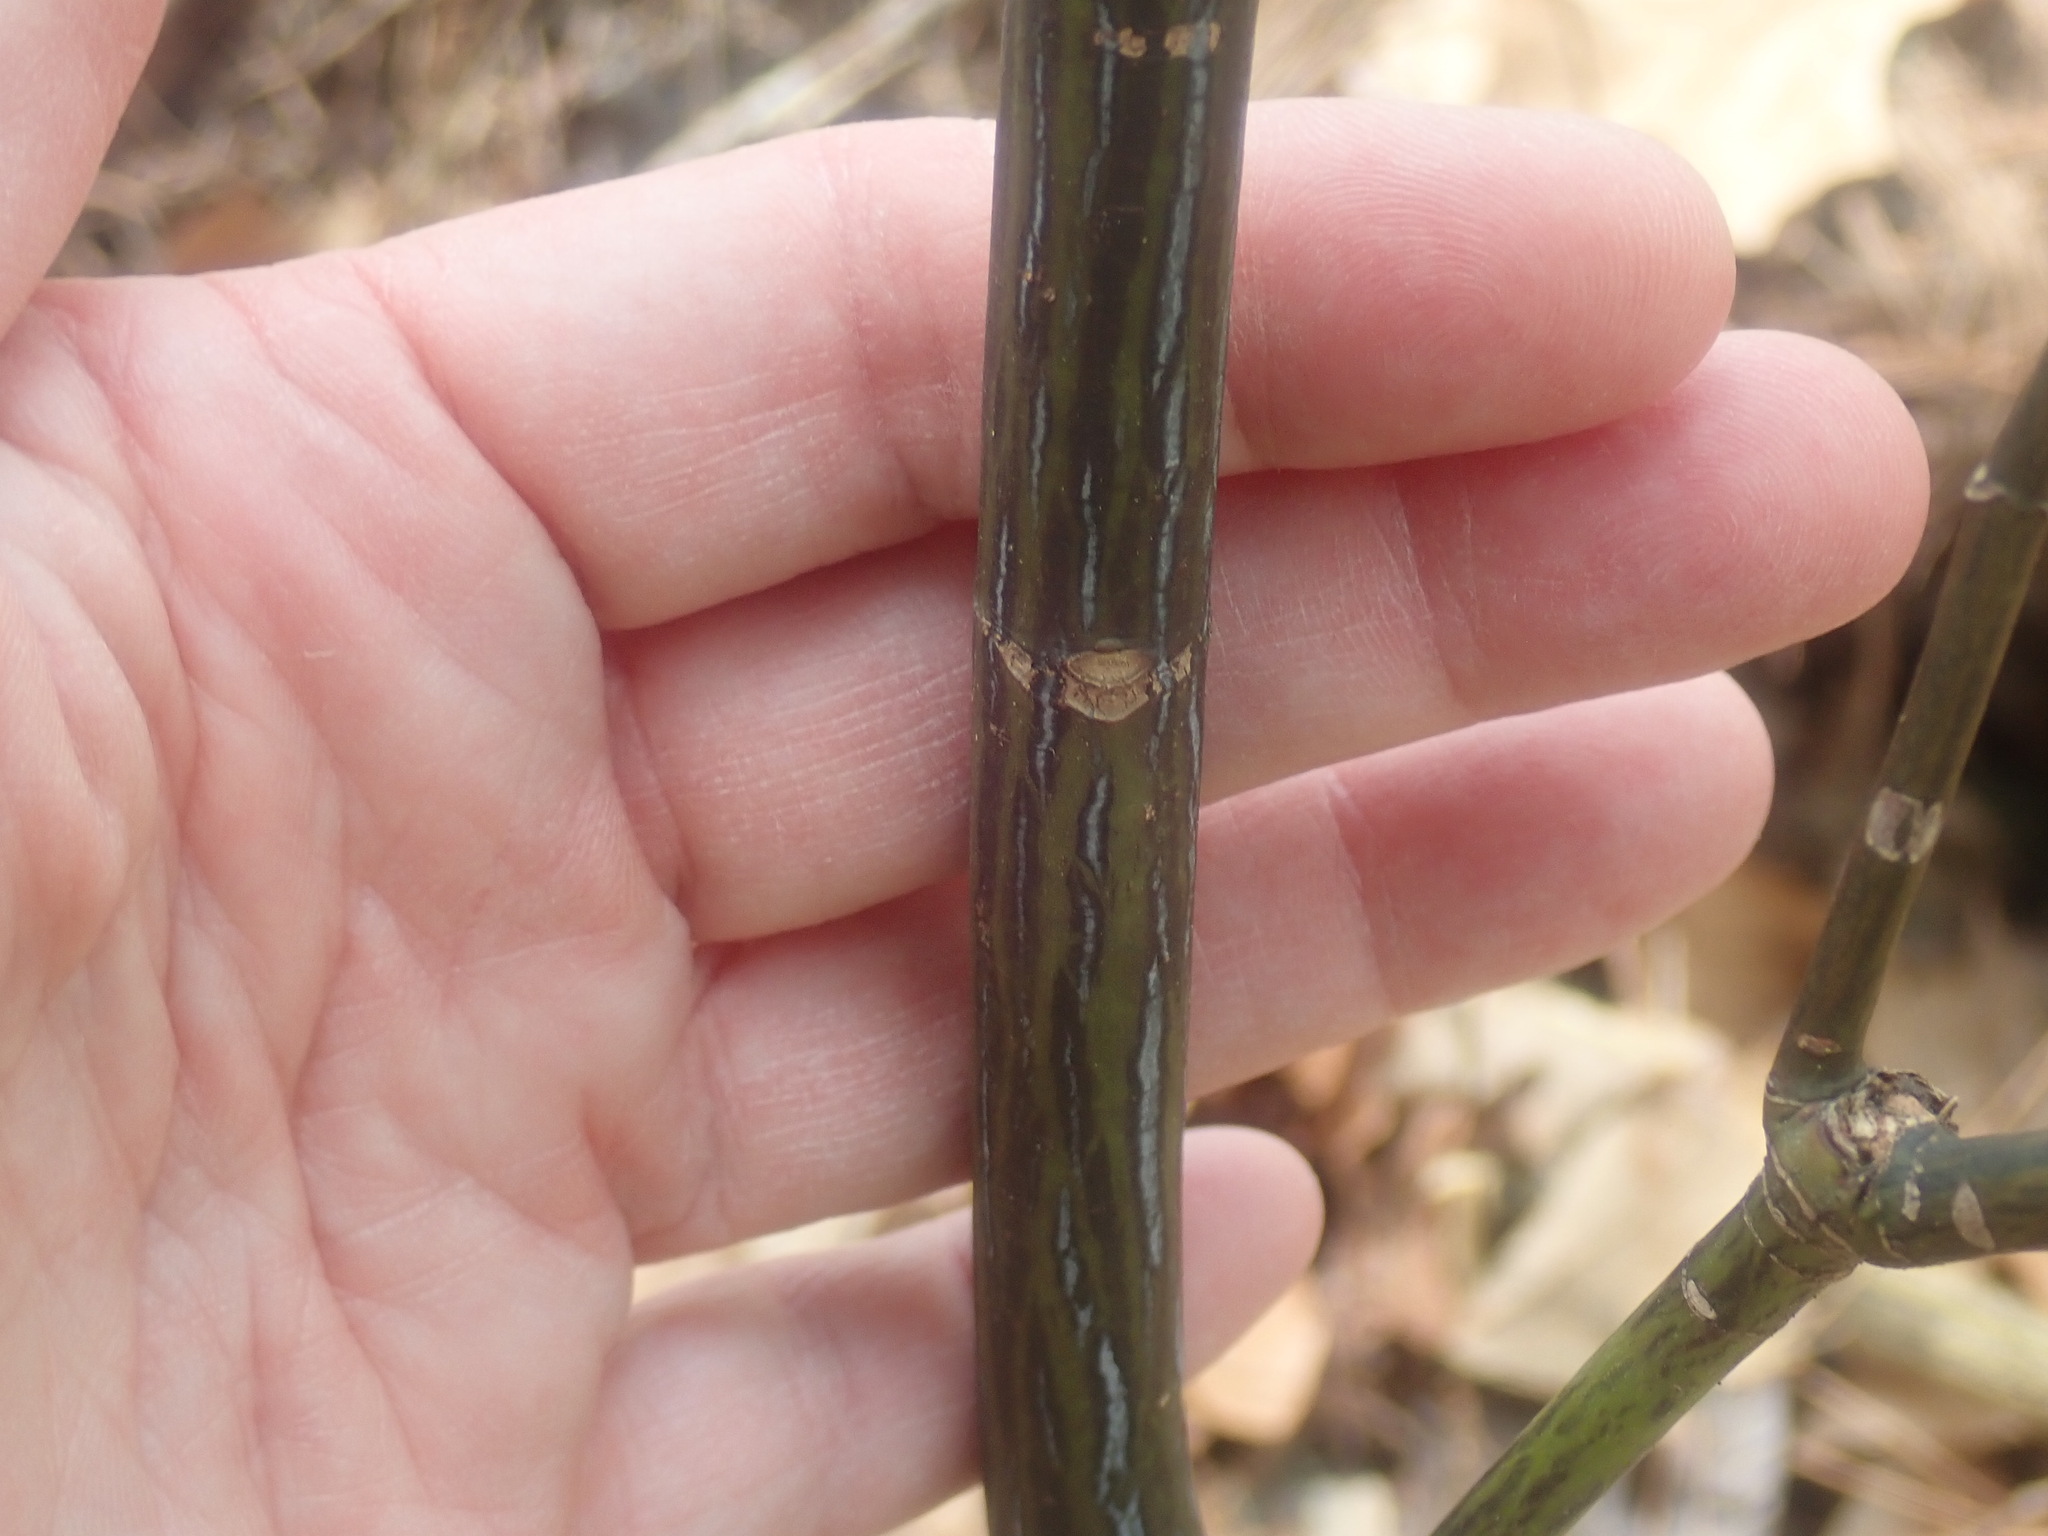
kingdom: Plantae
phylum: Tracheophyta
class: Magnoliopsida
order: Sapindales
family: Sapindaceae
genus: Acer
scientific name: Acer pensylvanicum
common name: Moosewood
